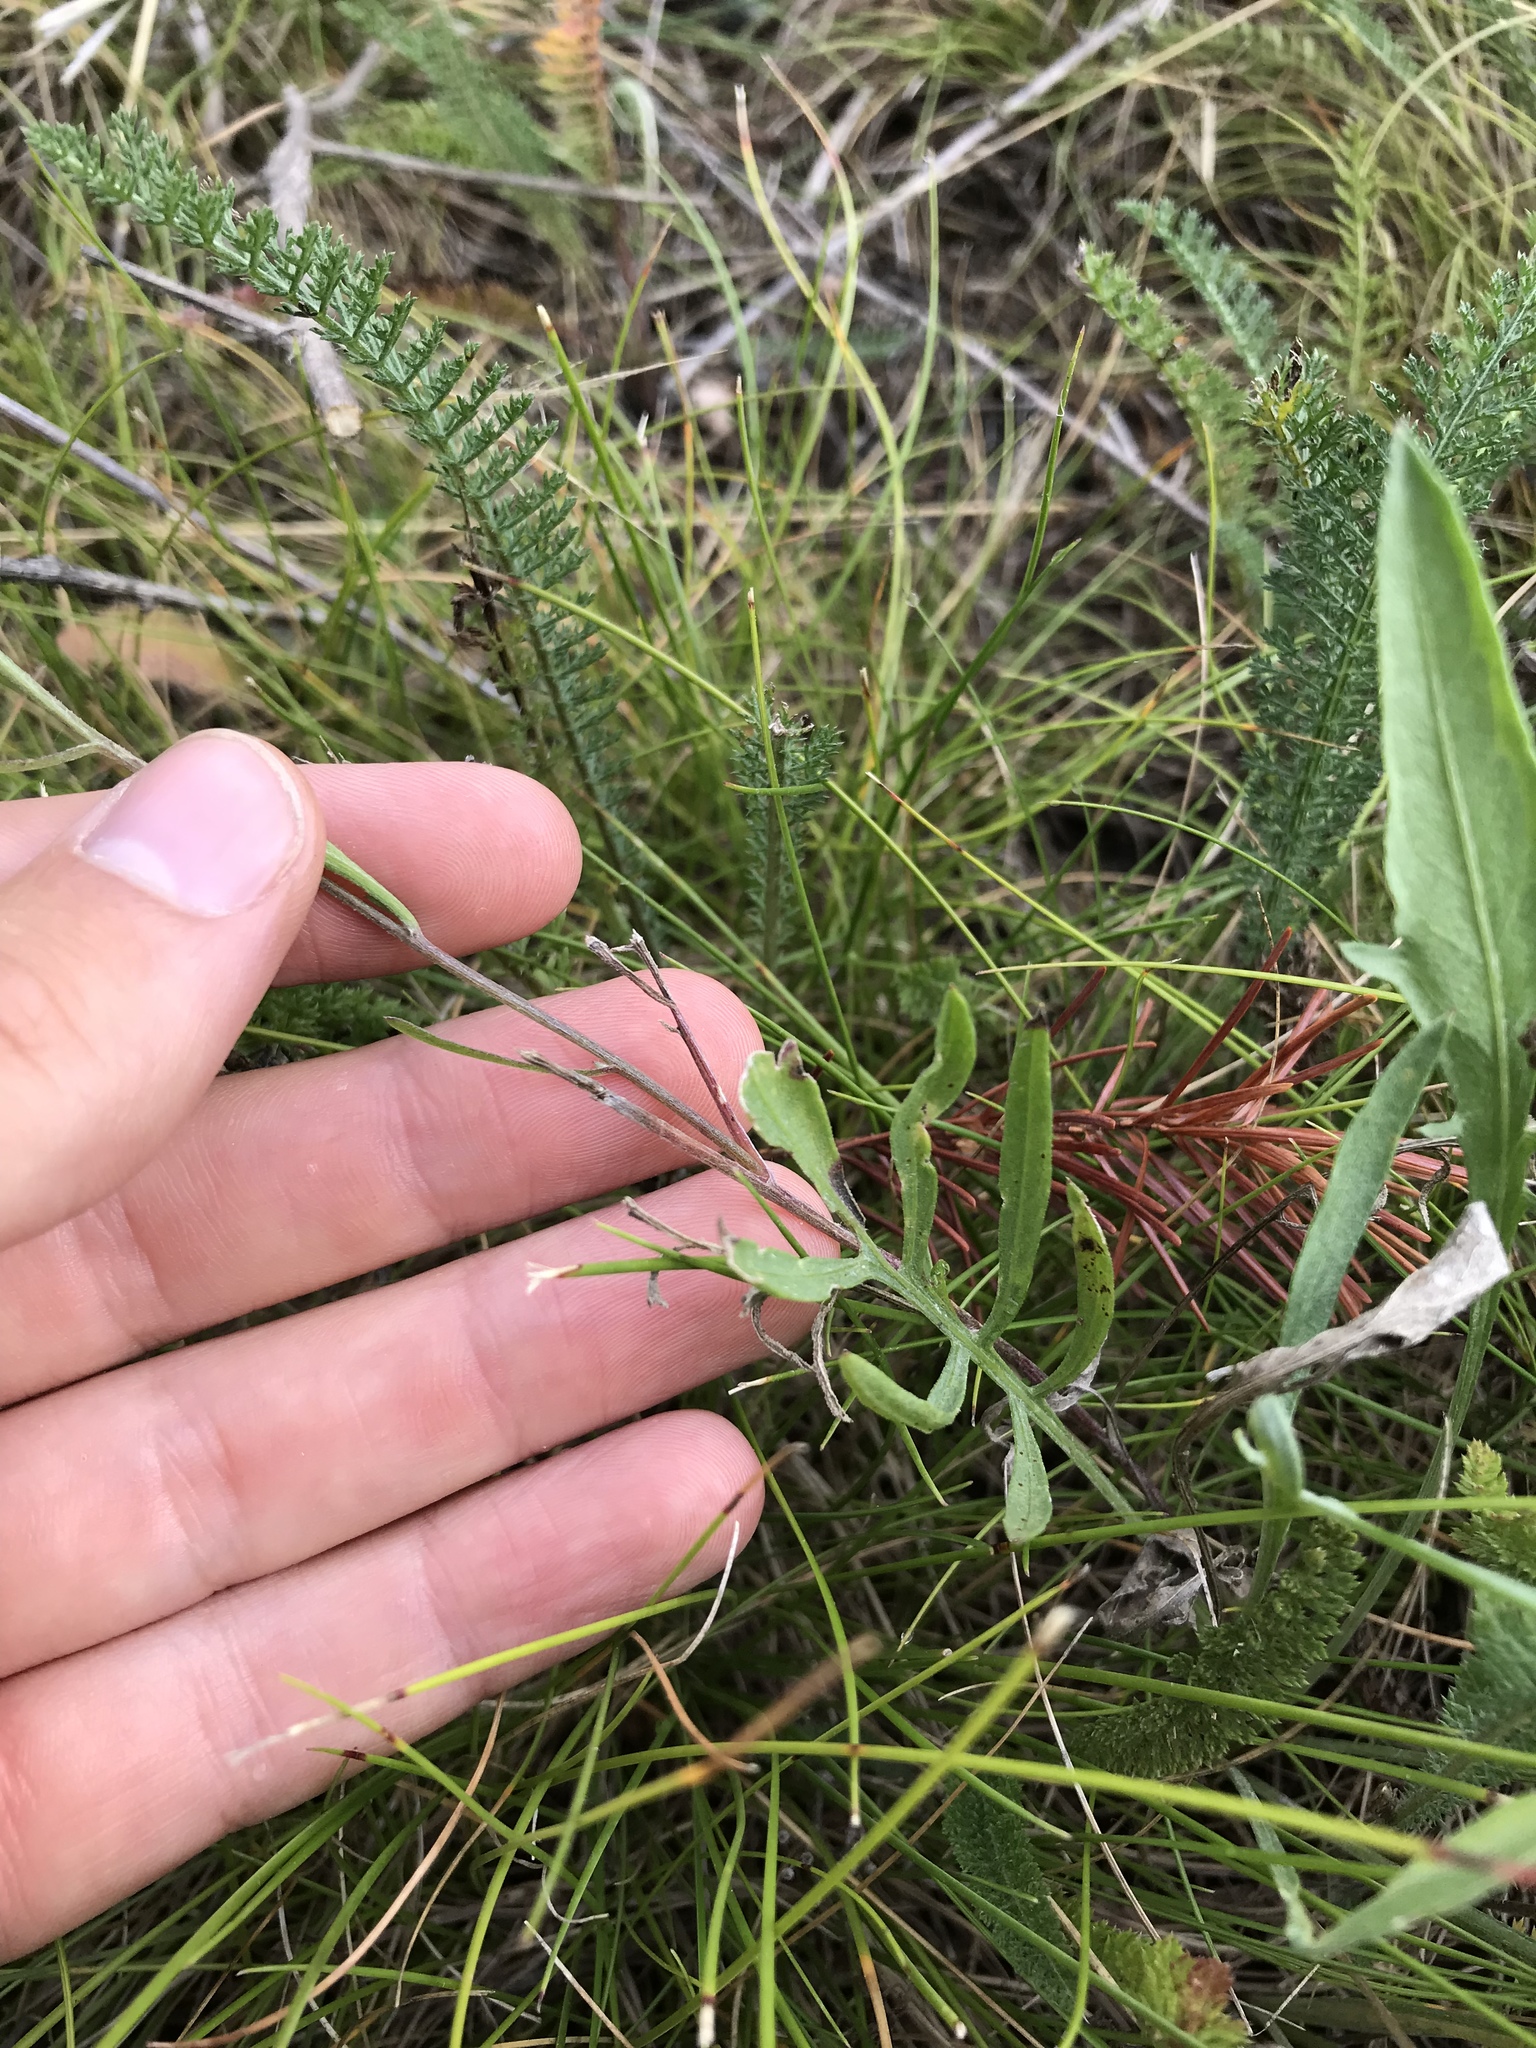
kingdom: Plantae
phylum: Tracheophyta
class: Magnoliopsida
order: Asterales
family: Asteraceae
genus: Centaurea
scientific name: Centaurea stoebe
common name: Spotted knapweed
